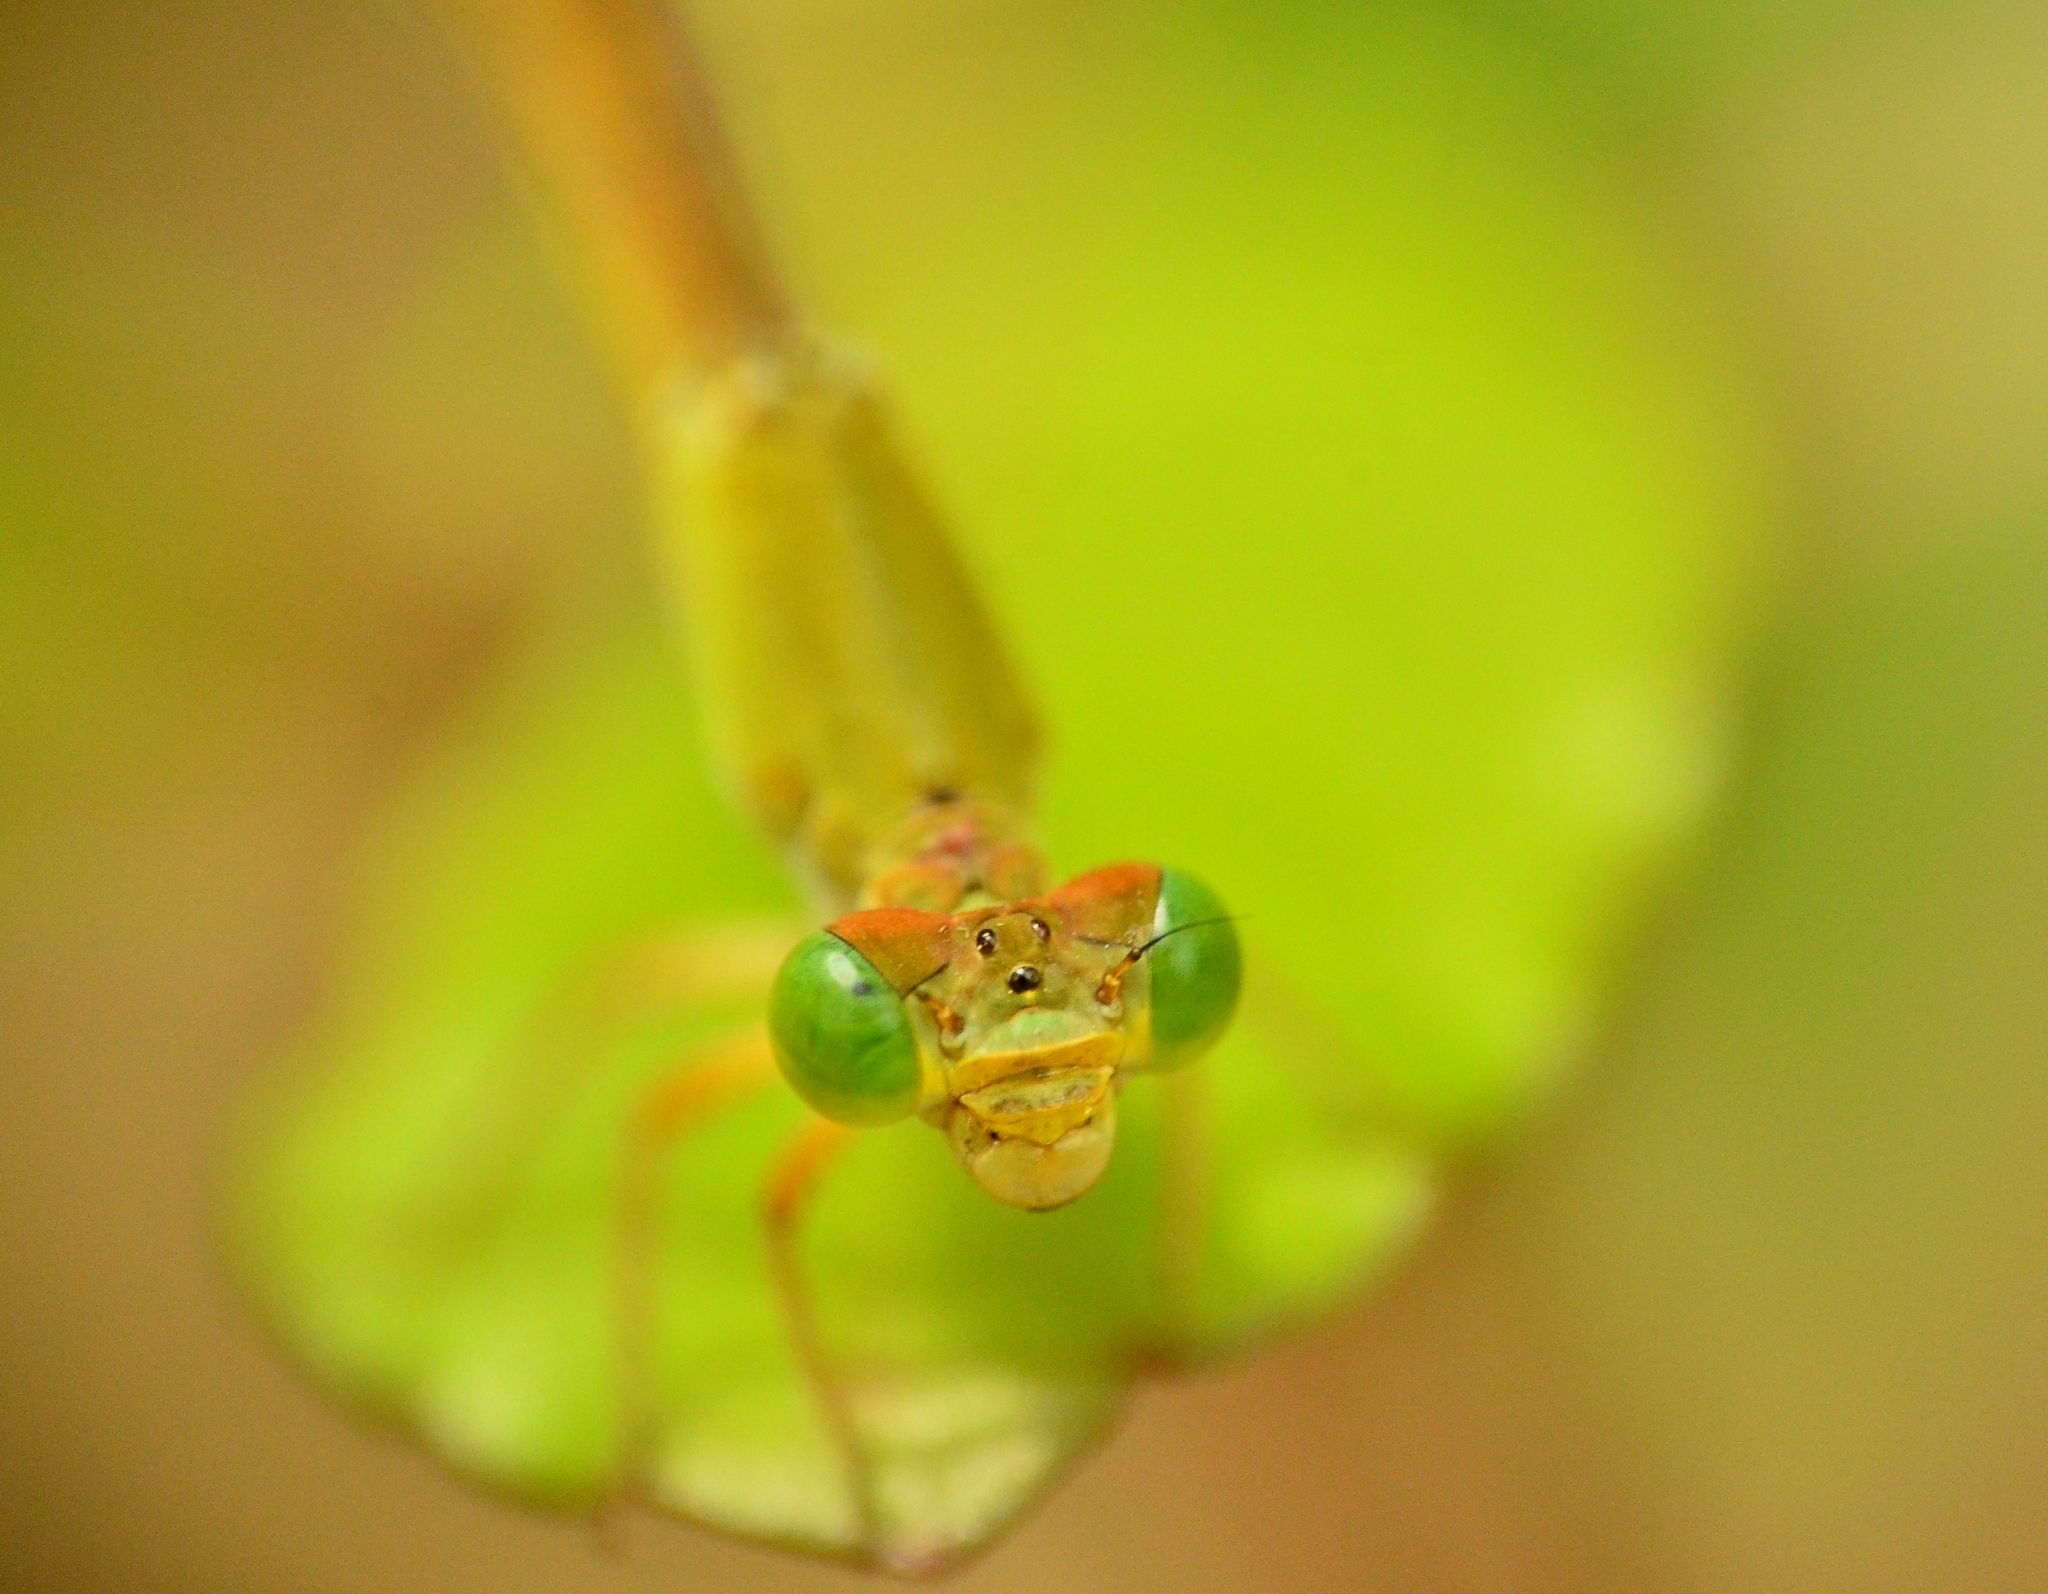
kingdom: Animalia
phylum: Arthropoda
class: Insecta
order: Odonata
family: Coenagrionidae
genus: Ceriagrion
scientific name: Ceriagrion coromandelianum
